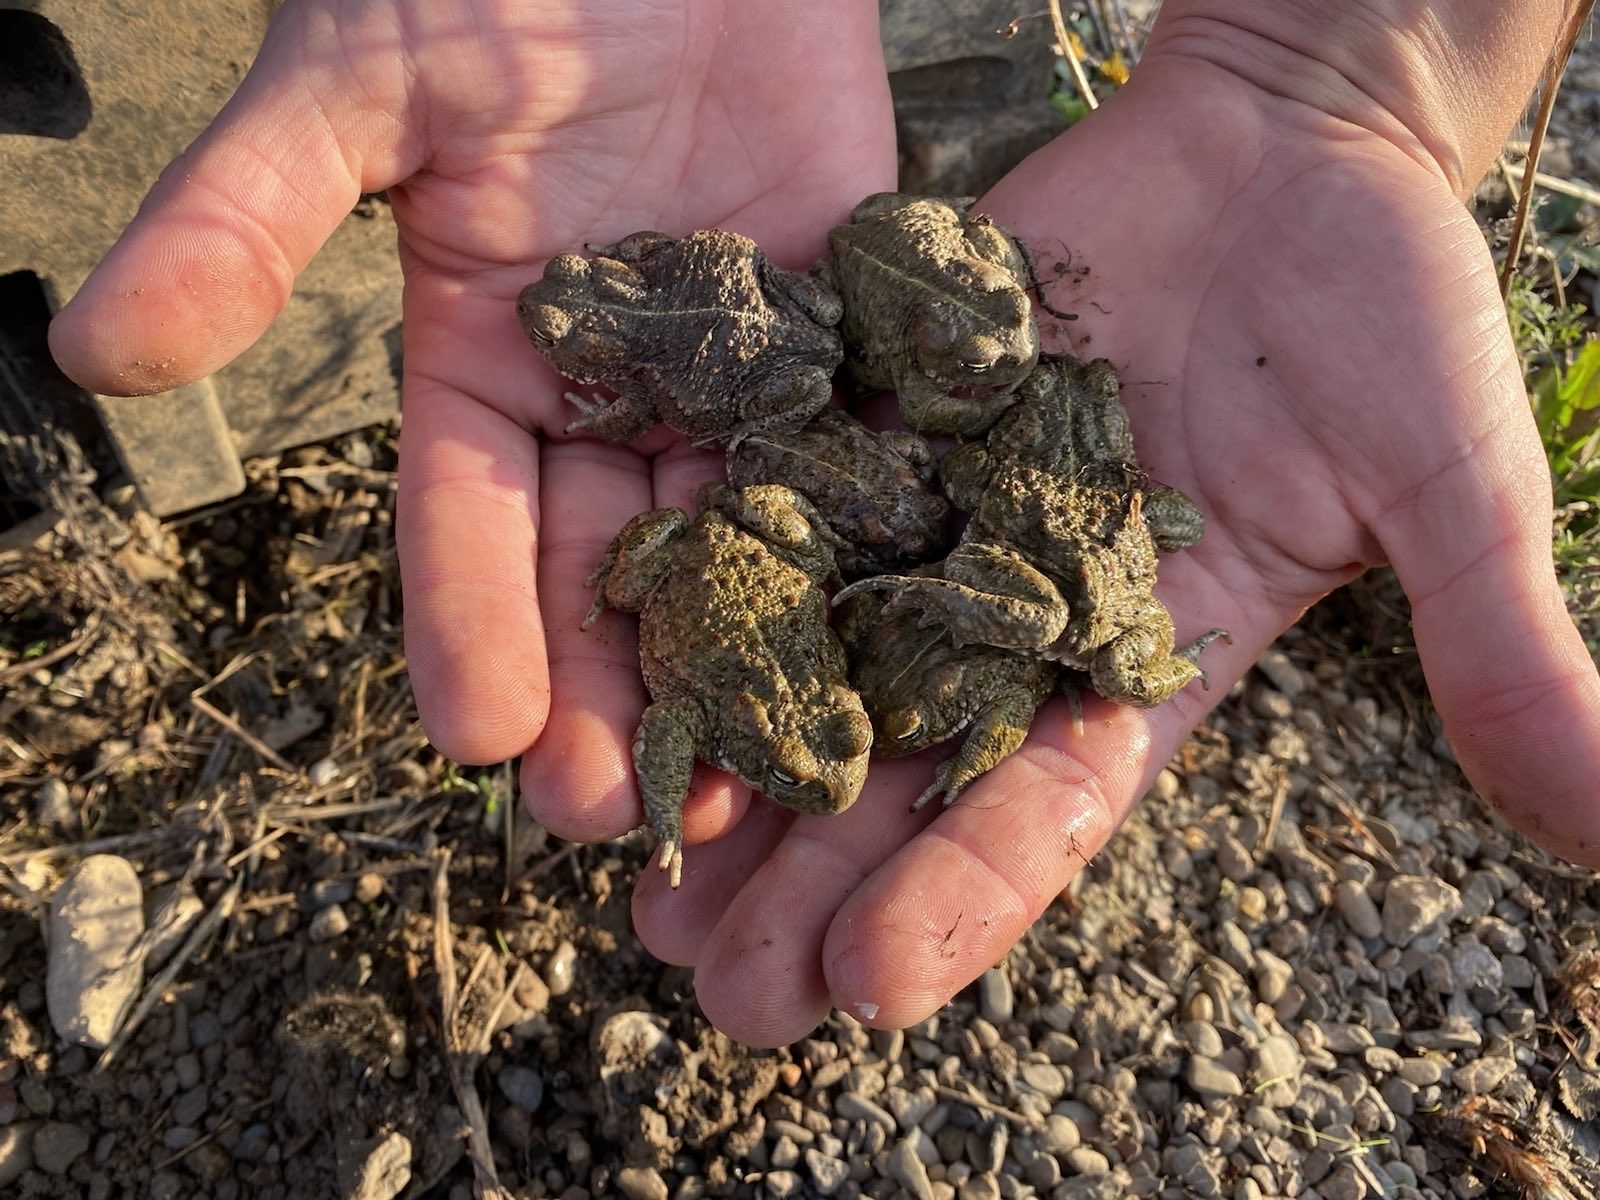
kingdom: Animalia
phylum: Chordata
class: Amphibia
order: Anura
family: Bufonidae
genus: Epidalea
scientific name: Epidalea calamita
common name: Natterjack toad
